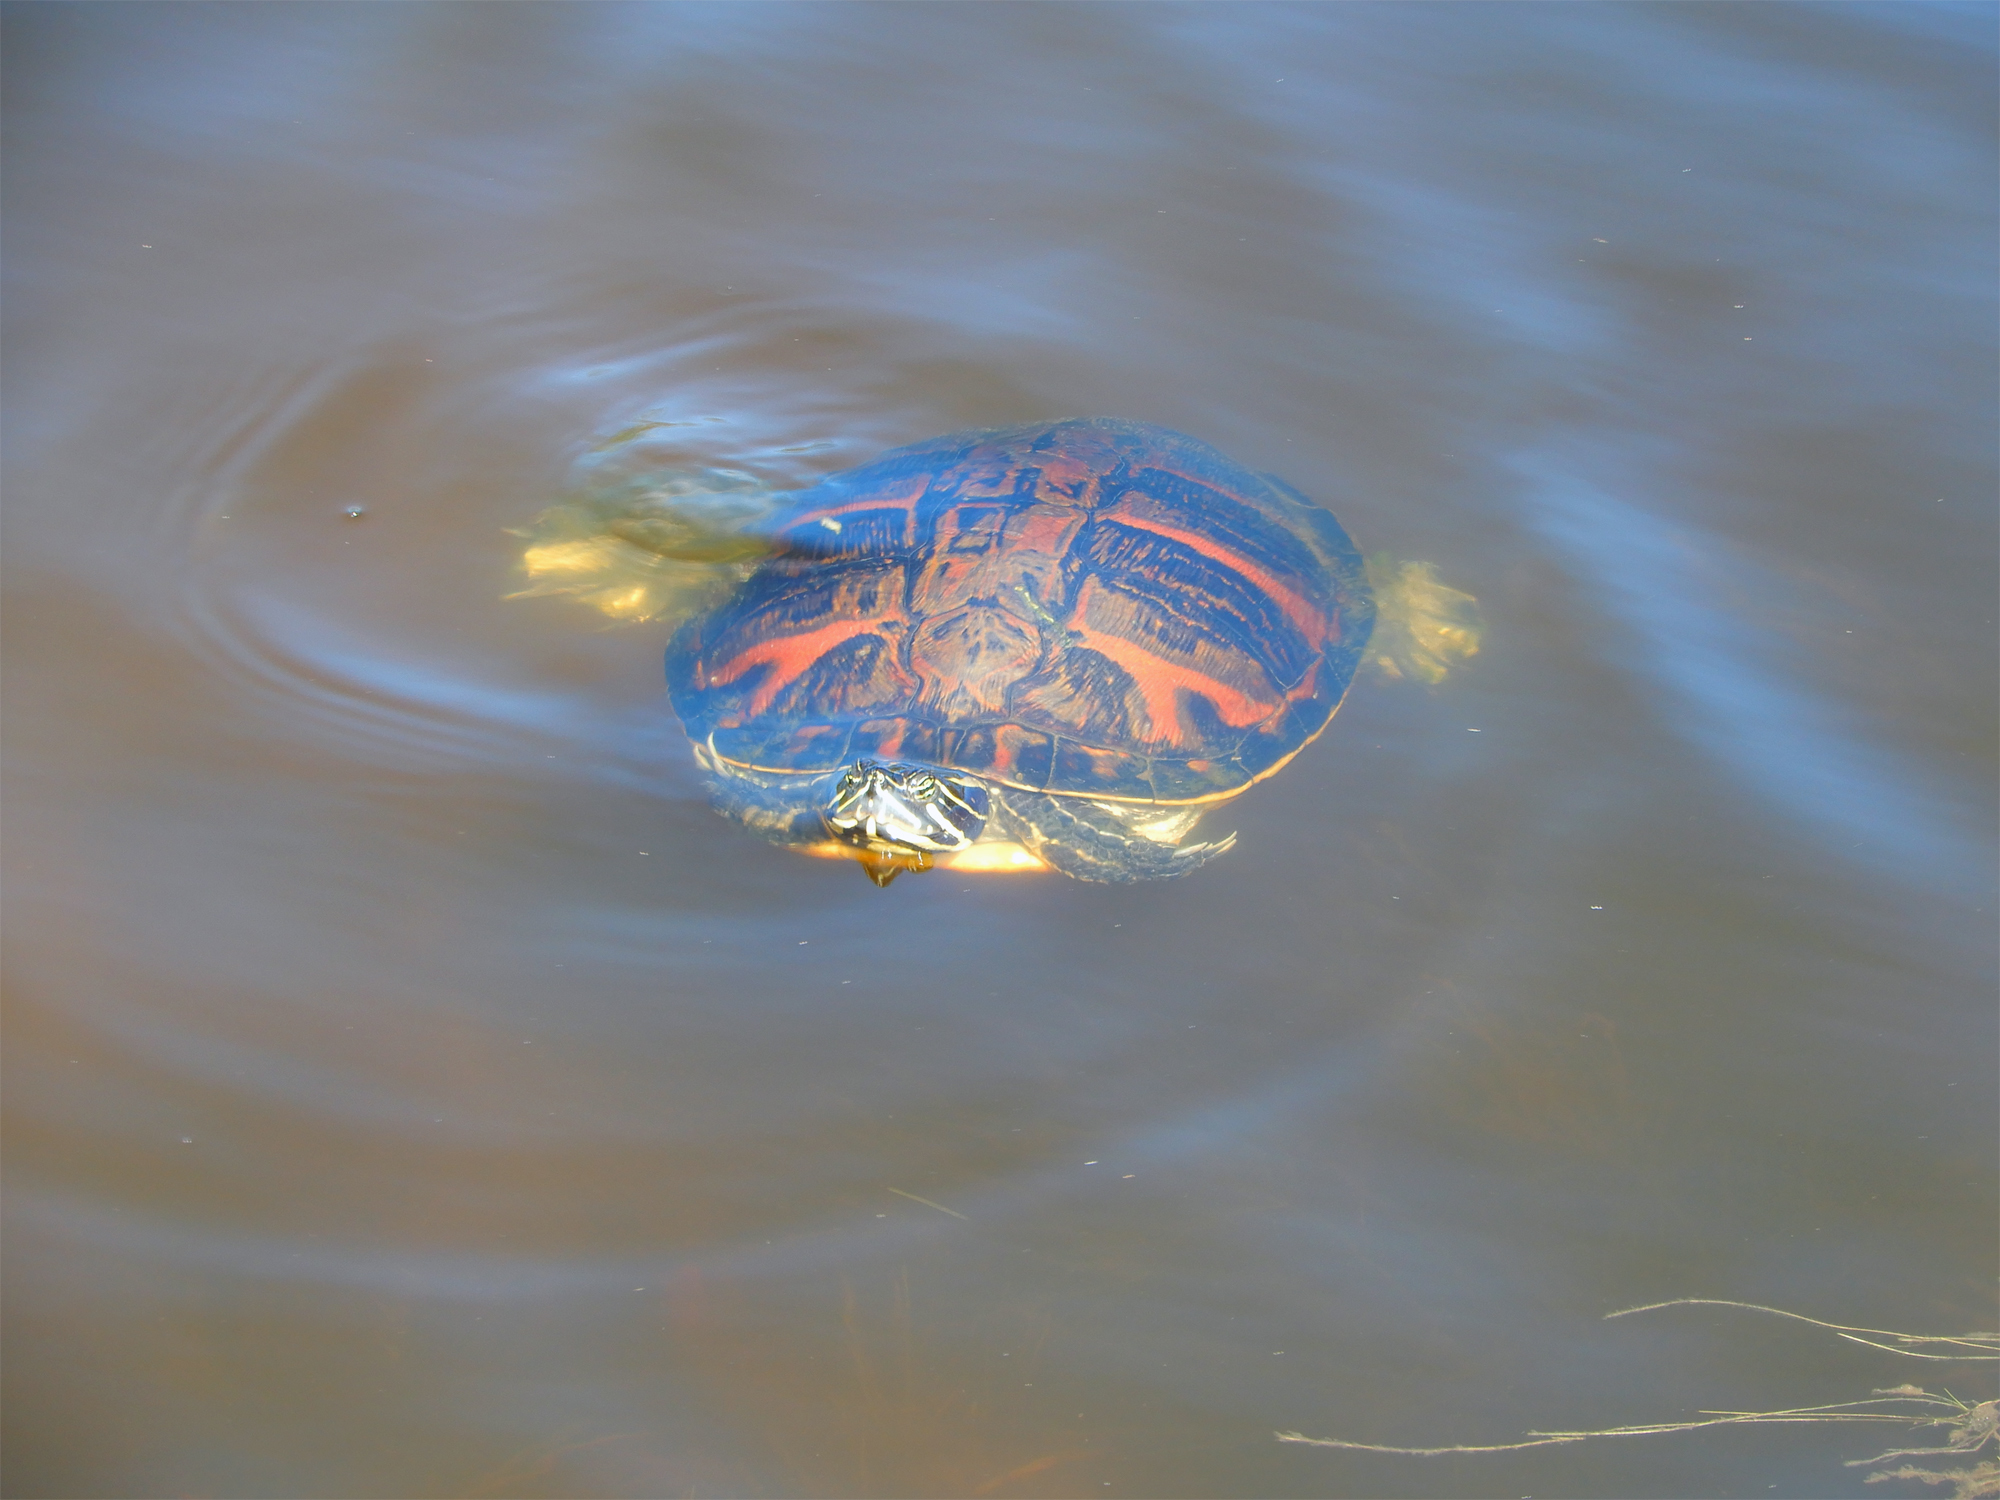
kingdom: Animalia
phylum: Chordata
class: Testudines
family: Emydidae
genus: Pseudemys
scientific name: Pseudemys nelsoni
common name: Florida red-bellied turtle
